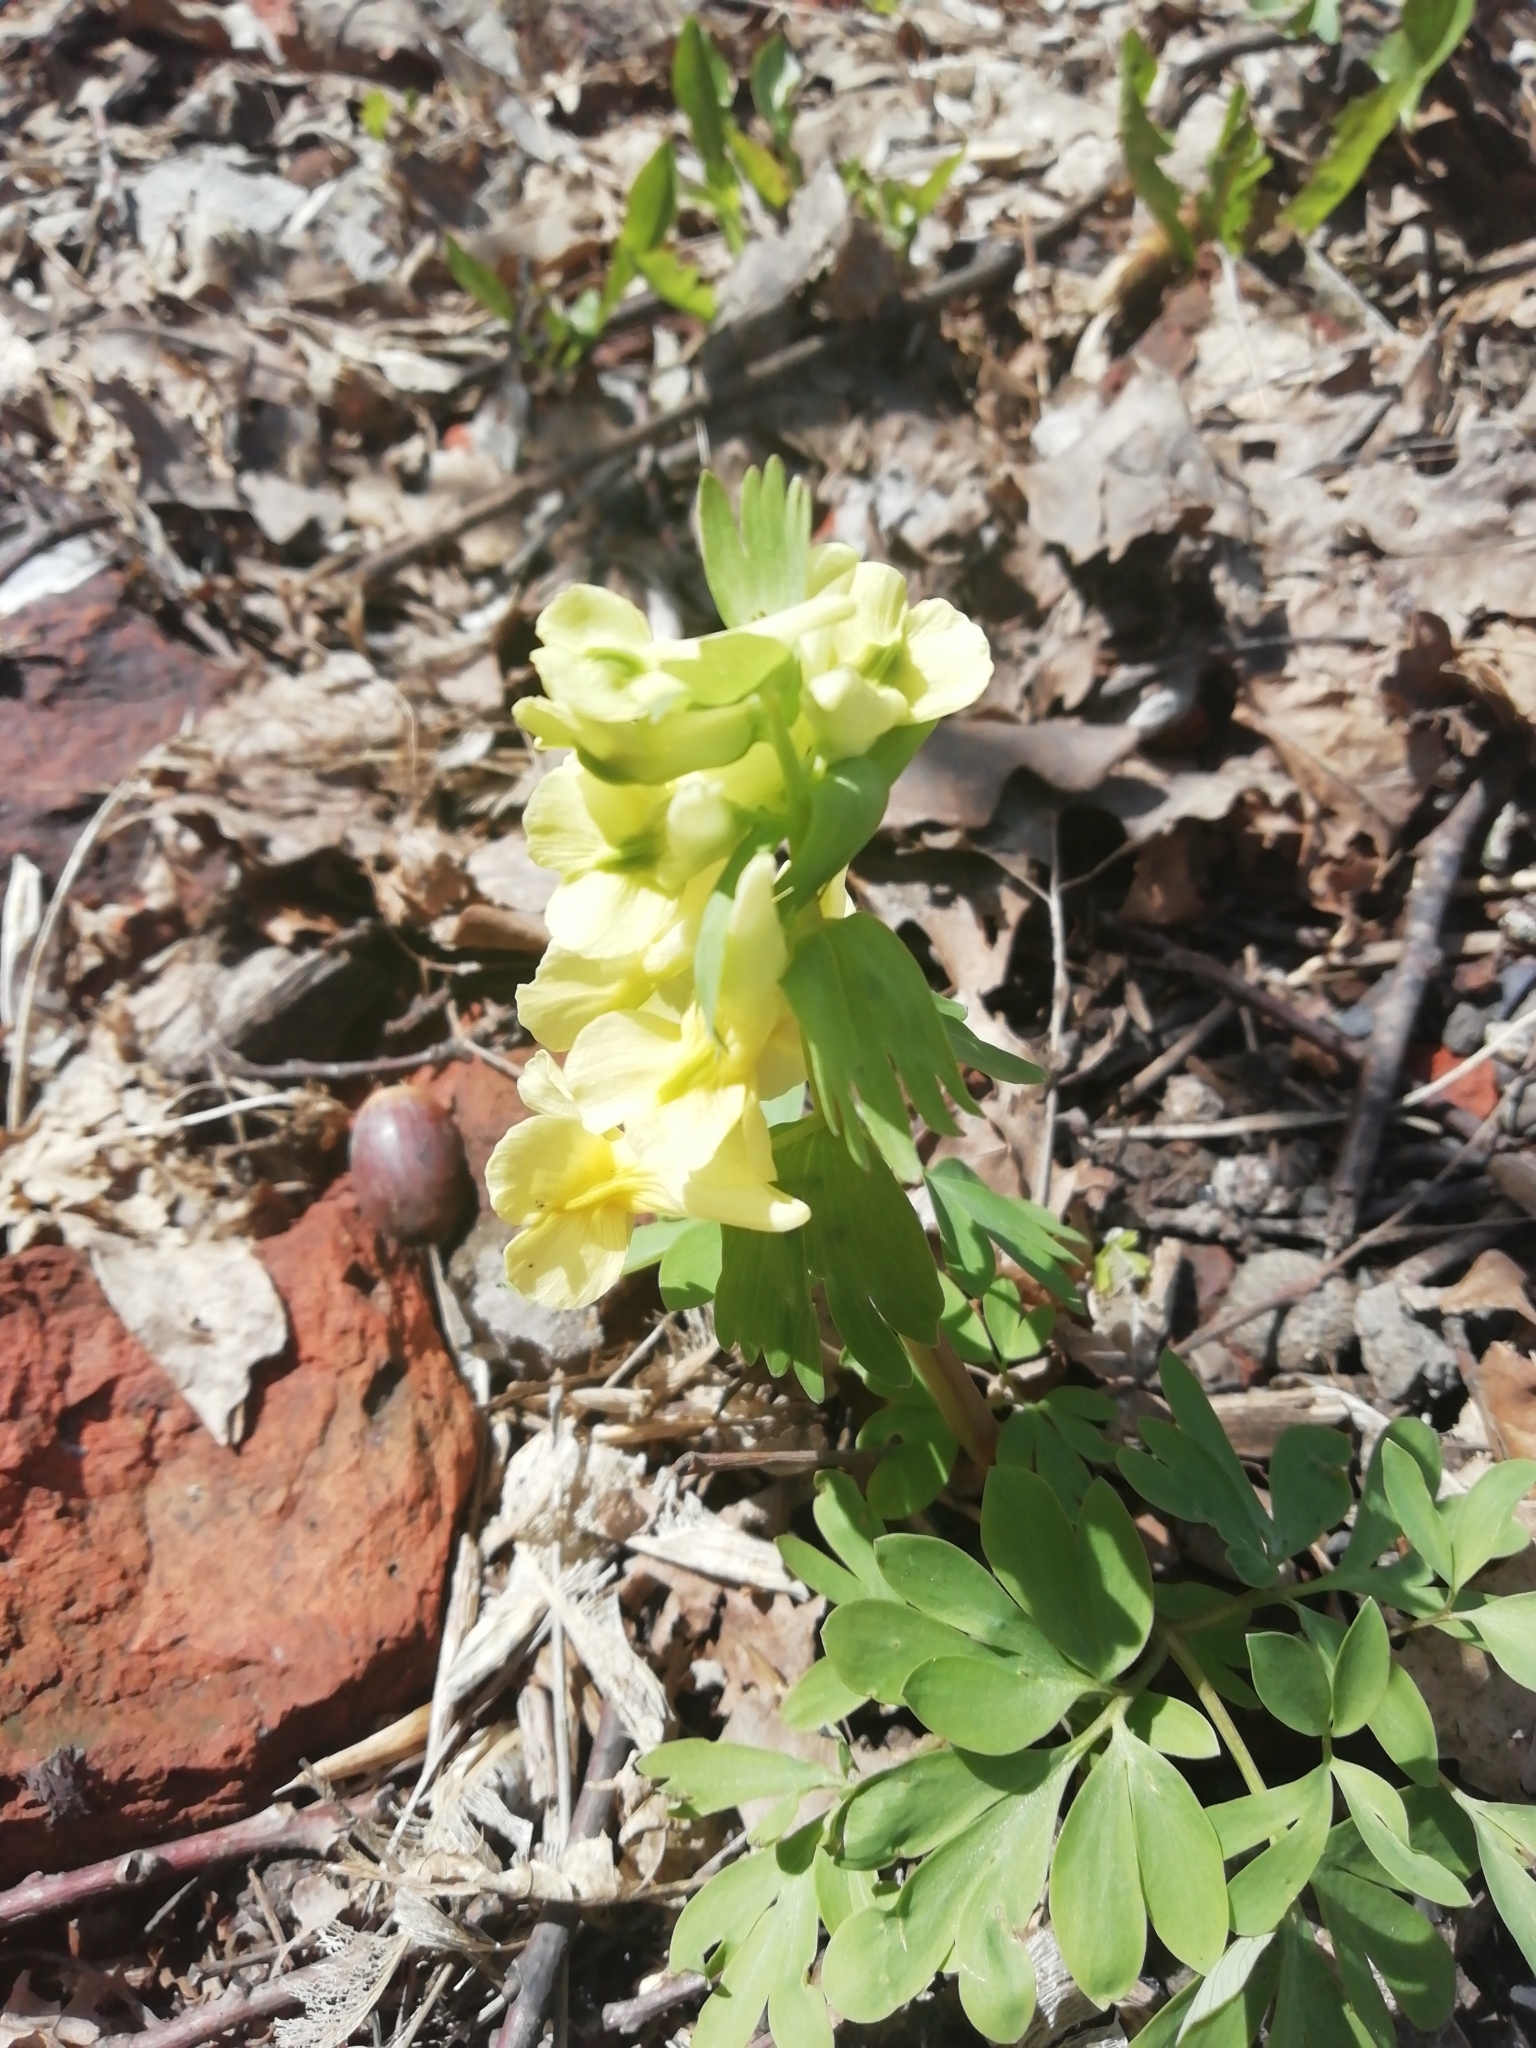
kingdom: Plantae
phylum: Tracheophyta
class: Magnoliopsida
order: Ranunculales
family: Papaveraceae
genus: Corydalis
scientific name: Corydalis bracteata
